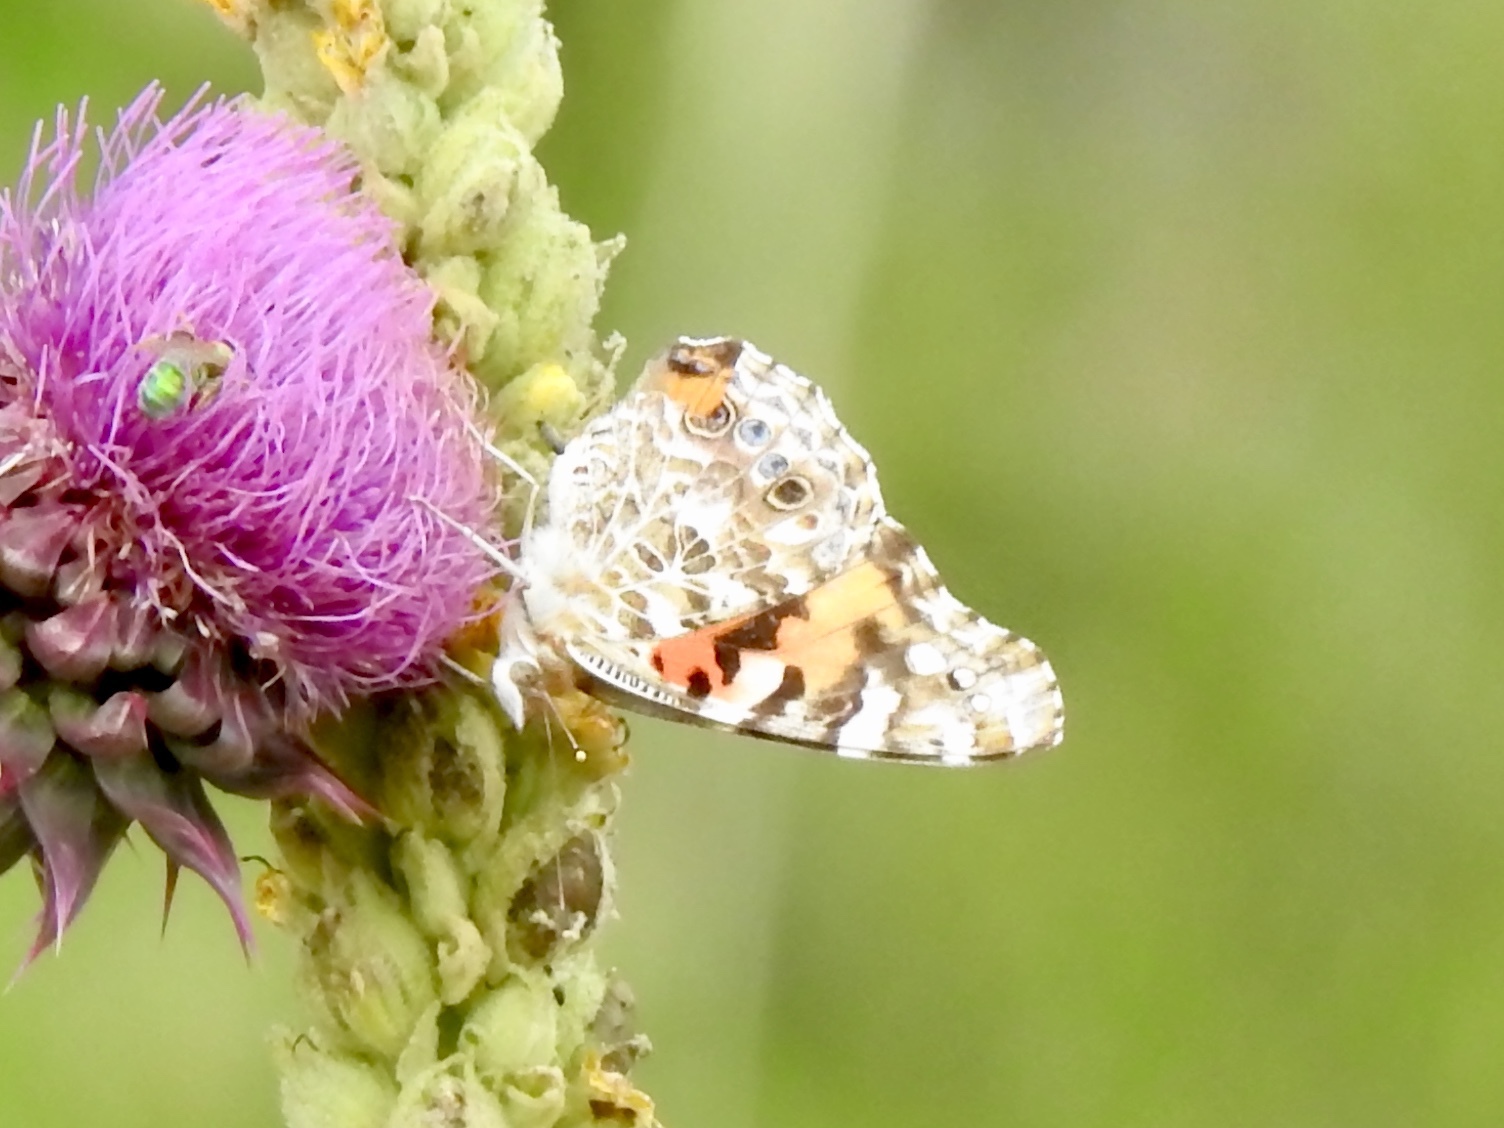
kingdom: Animalia
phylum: Arthropoda
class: Insecta
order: Lepidoptera
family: Nymphalidae
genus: Vanessa
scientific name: Vanessa cardui
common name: Painted lady
